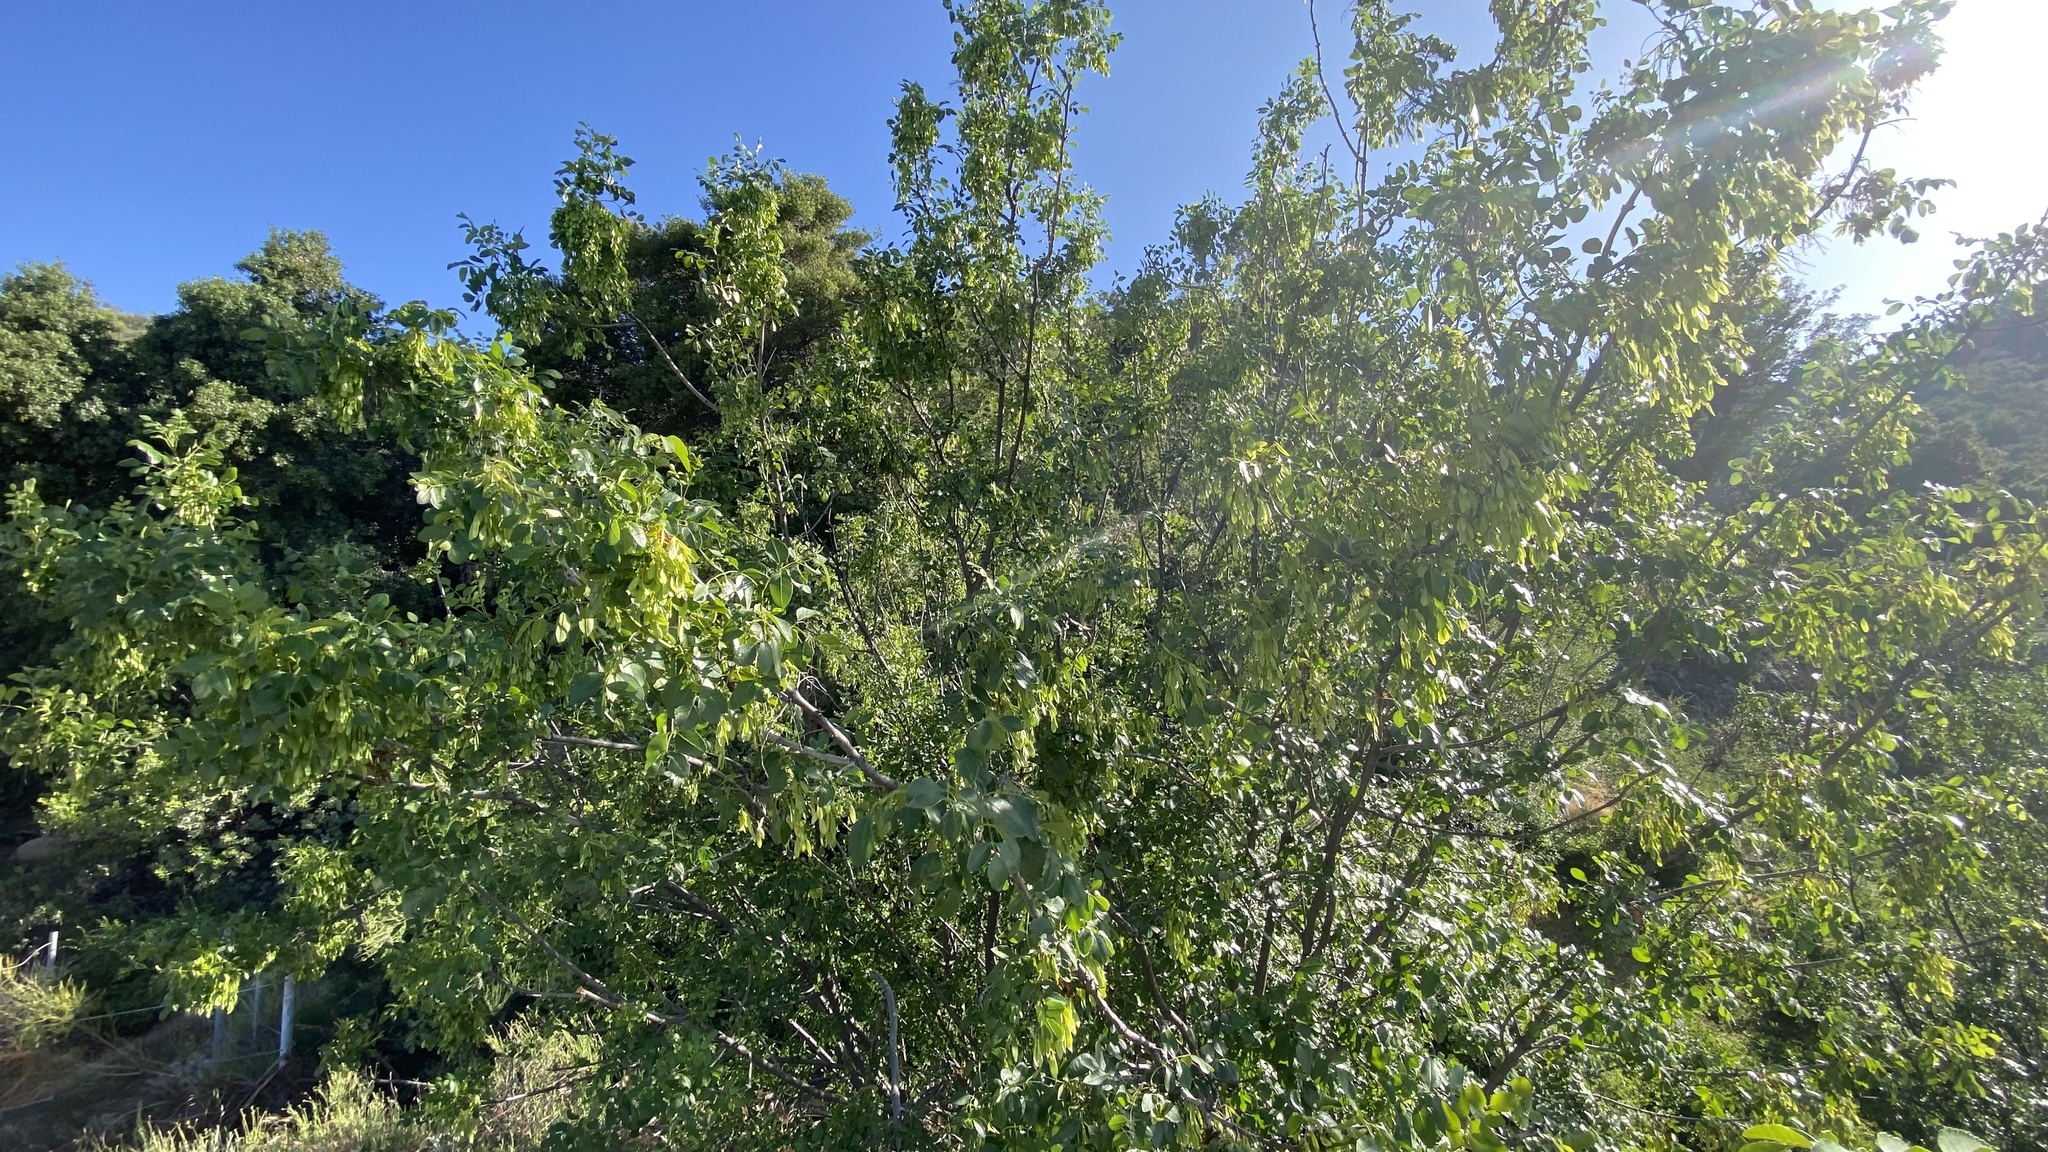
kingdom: Plantae
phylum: Tracheophyta
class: Magnoliopsida
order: Lamiales
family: Oleaceae
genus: Fraxinus
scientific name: Fraxinus dipetala
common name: California ash
